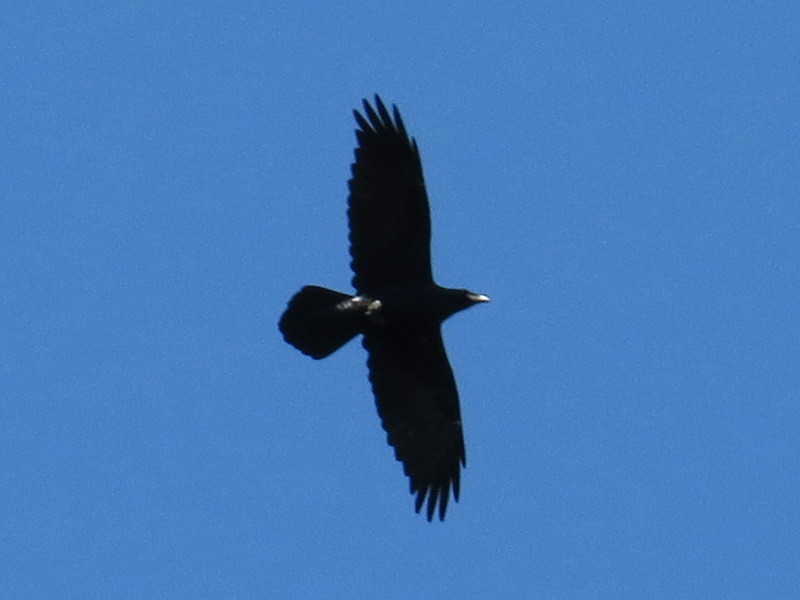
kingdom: Animalia
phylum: Chordata
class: Aves
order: Passeriformes
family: Corvidae
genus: Corvus
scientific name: Corvus corax
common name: Common raven
